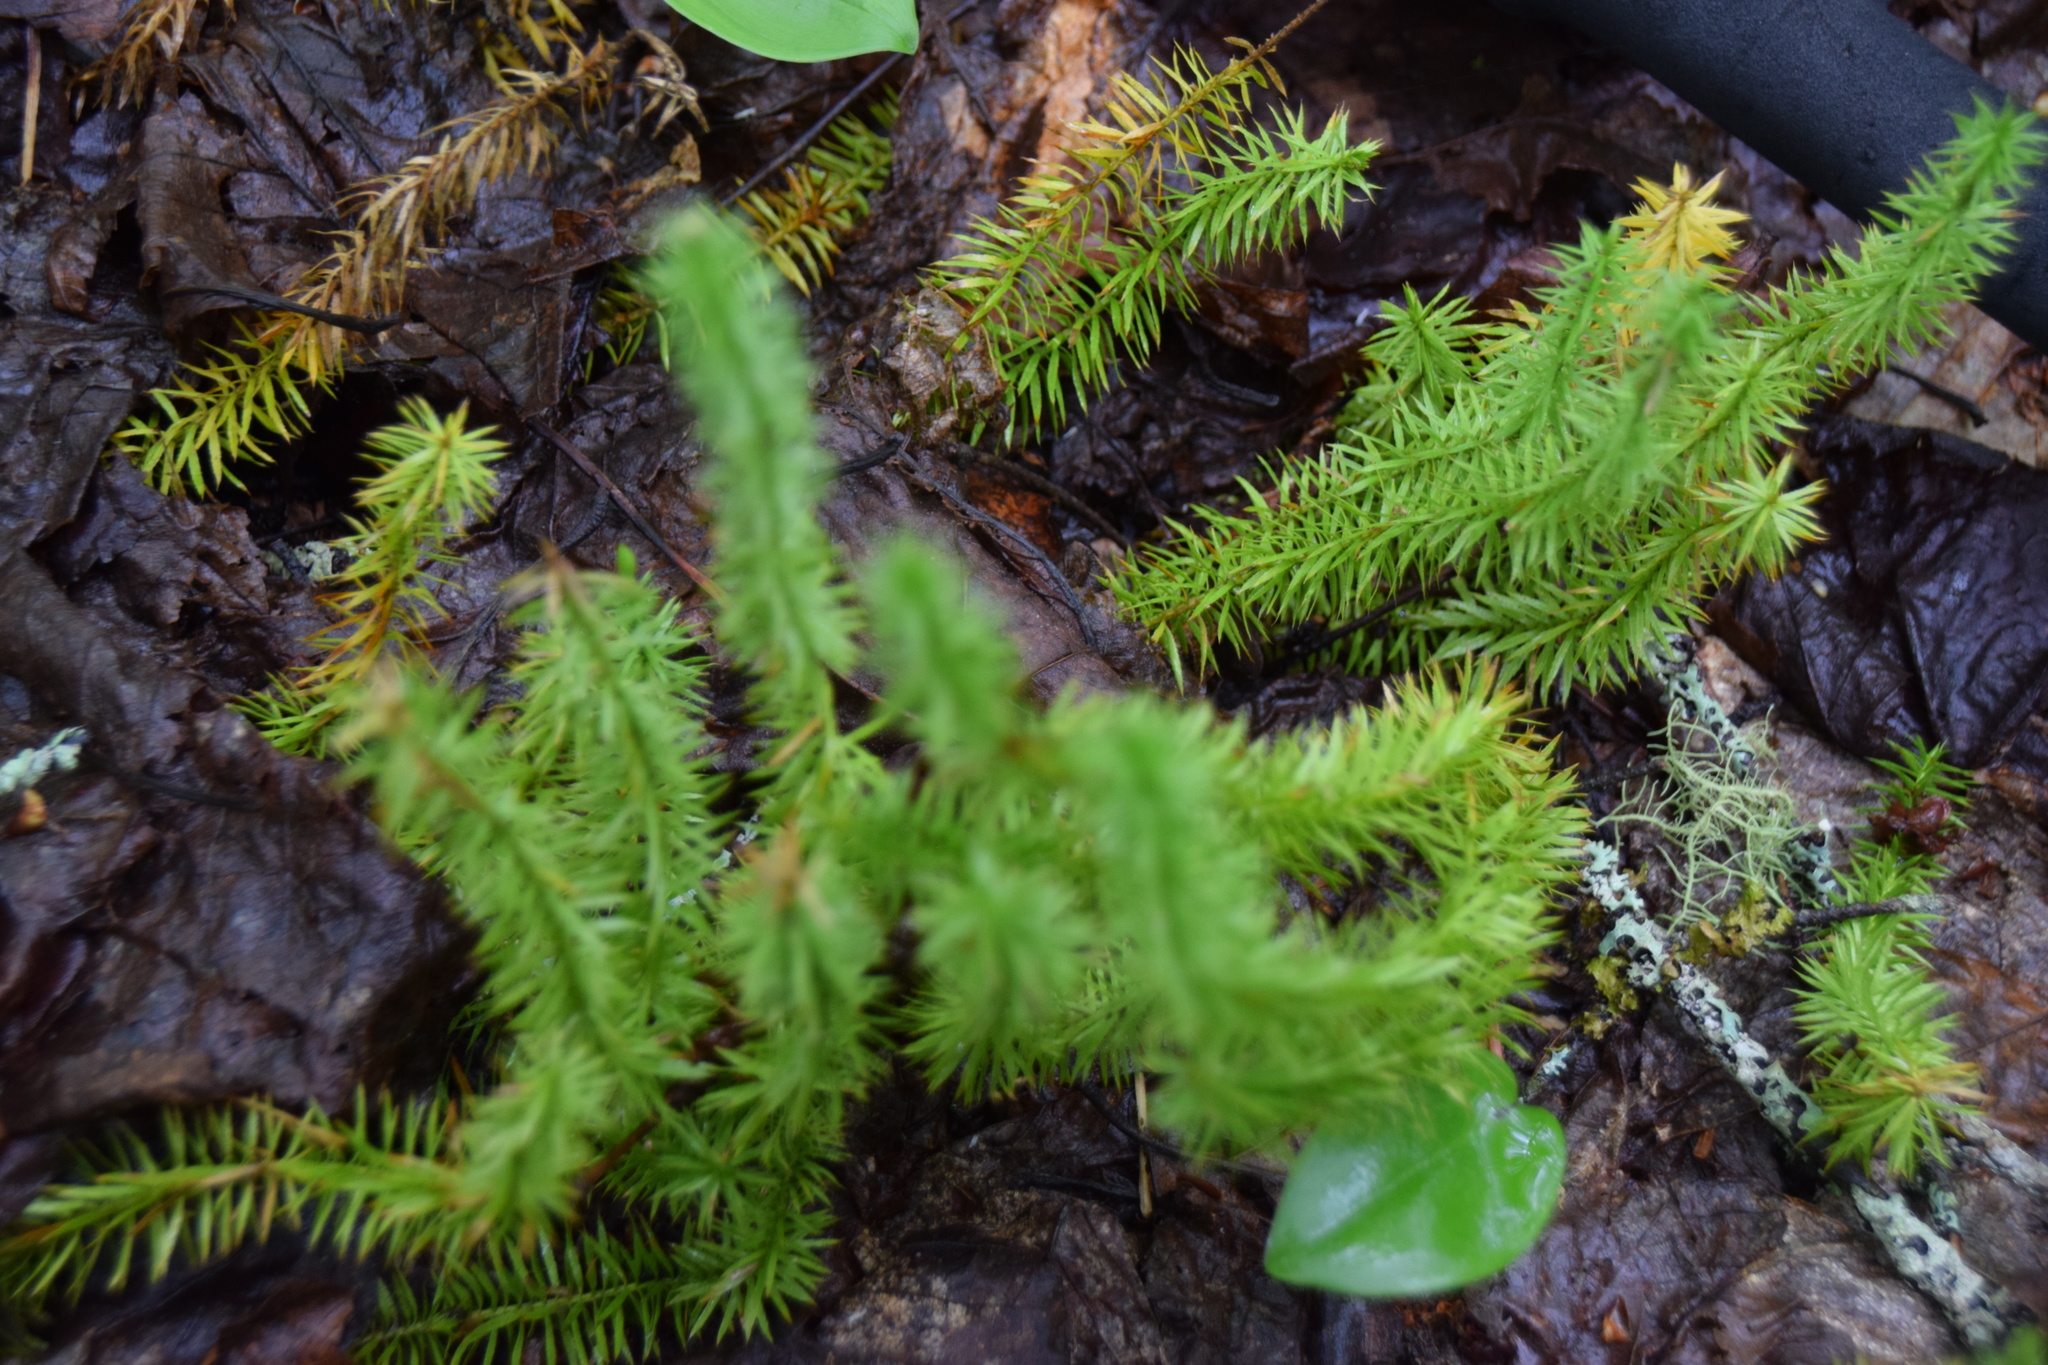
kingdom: Plantae
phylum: Tracheophyta
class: Lycopodiopsida
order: Lycopodiales
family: Lycopodiaceae
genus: Spinulum
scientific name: Spinulum annotinum
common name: Interrupted club-moss
